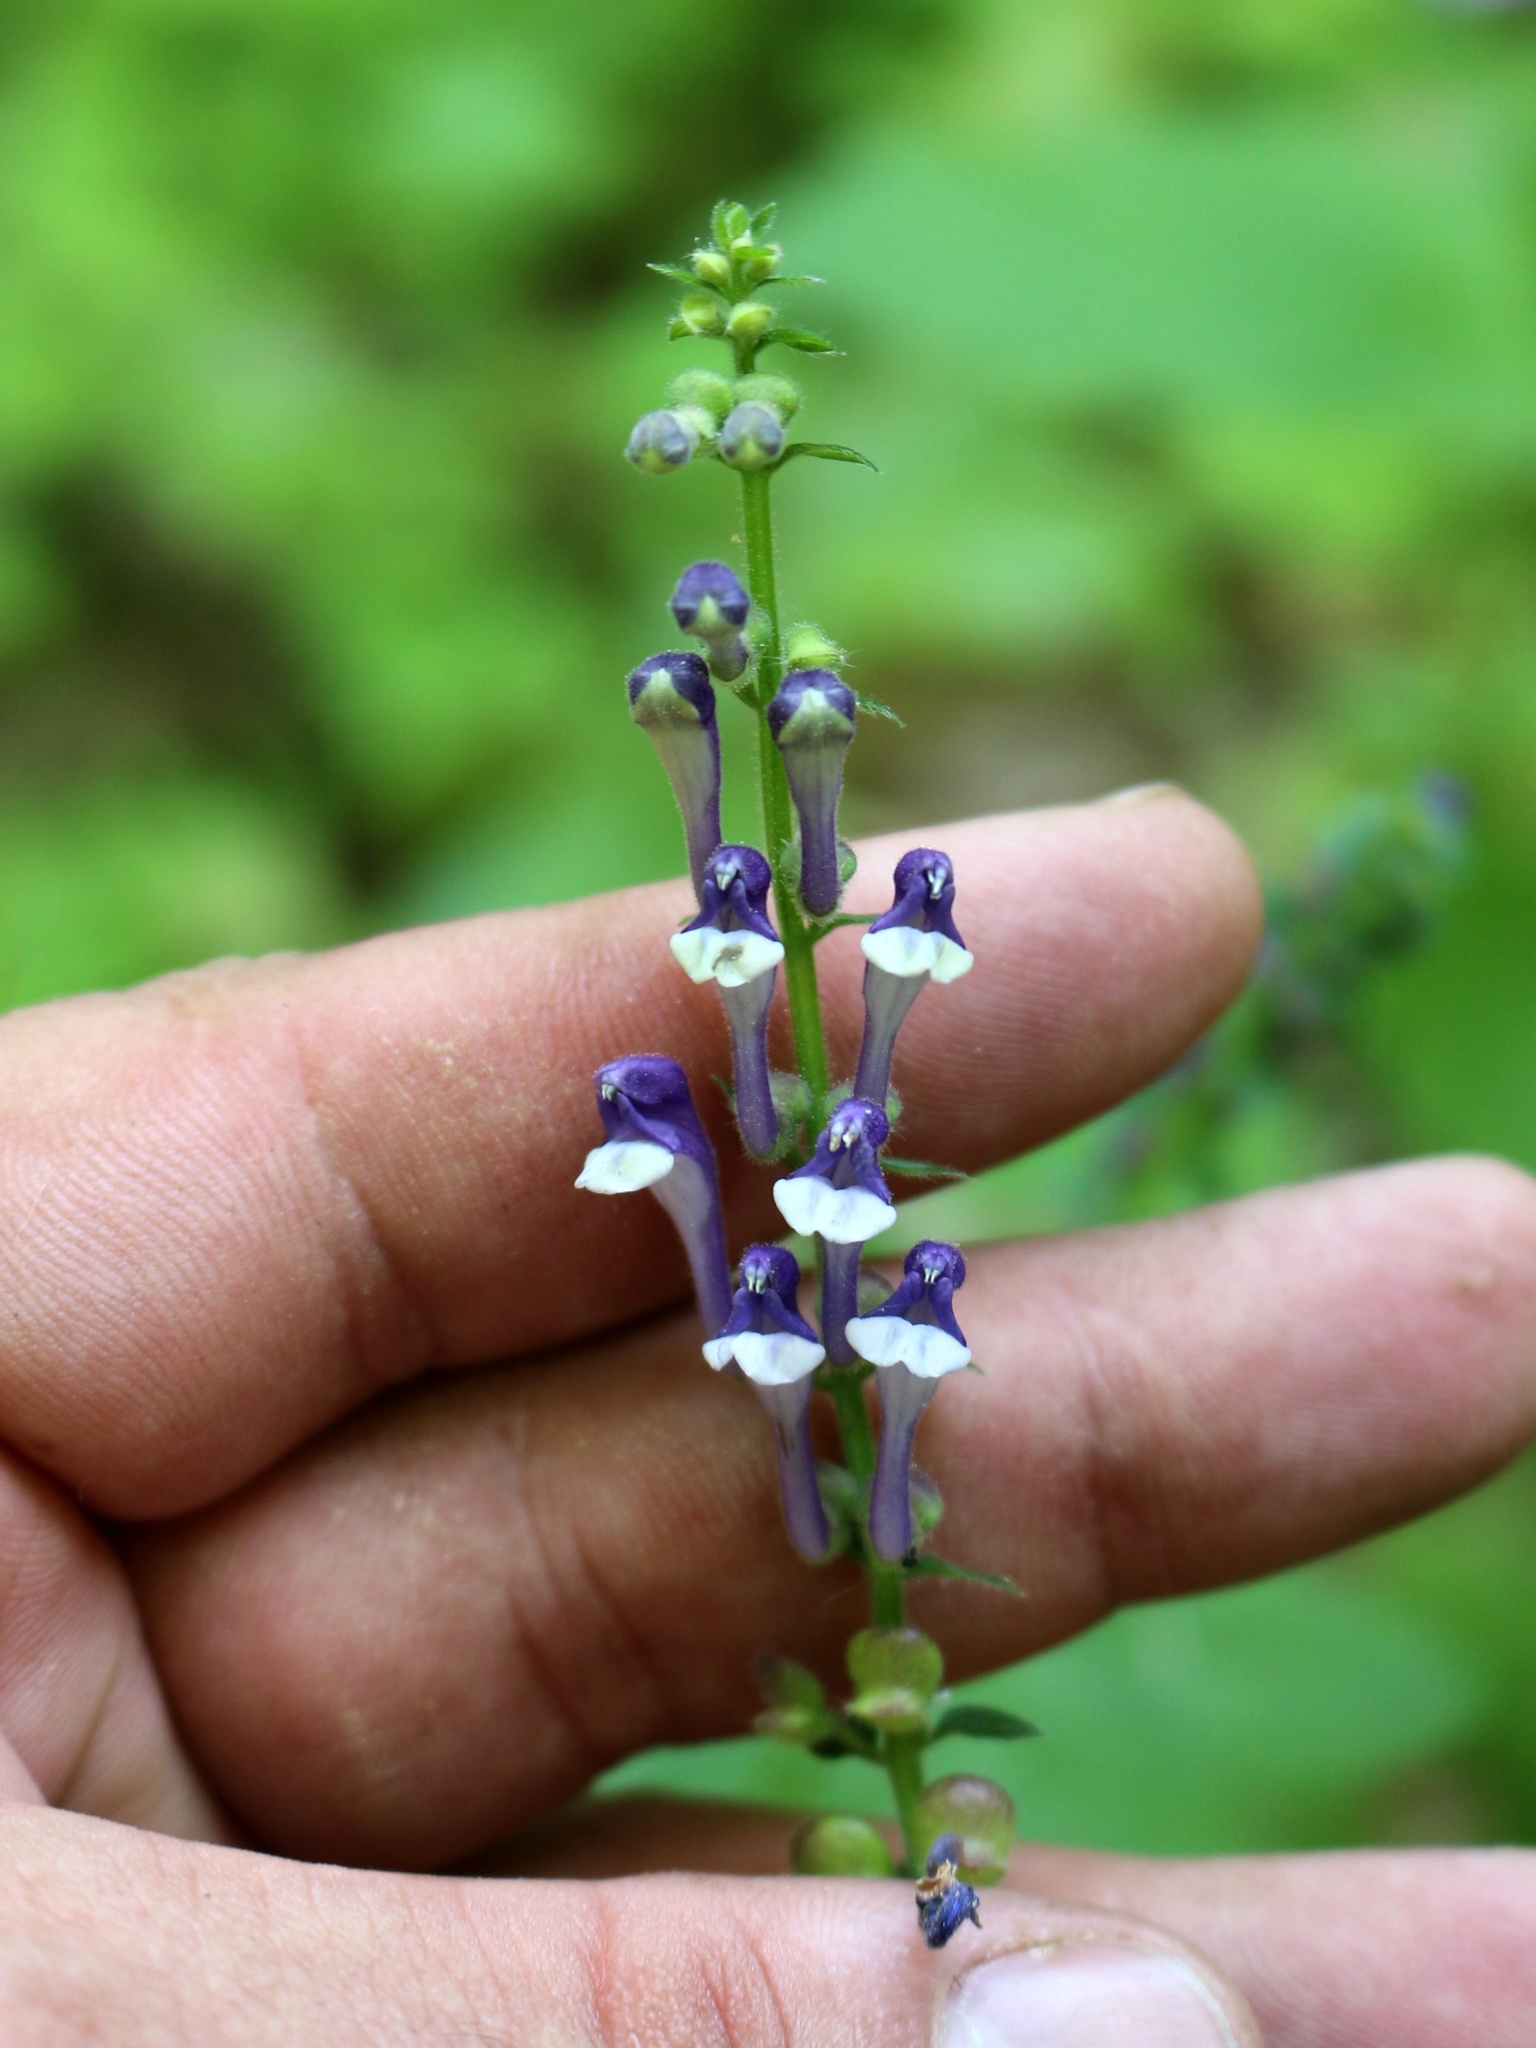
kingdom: Plantae
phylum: Tracheophyta
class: Magnoliopsida
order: Lamiales
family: Lamiaceae
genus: Scutellaria
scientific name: Scutellaria altissima
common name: Somerset skullcap
